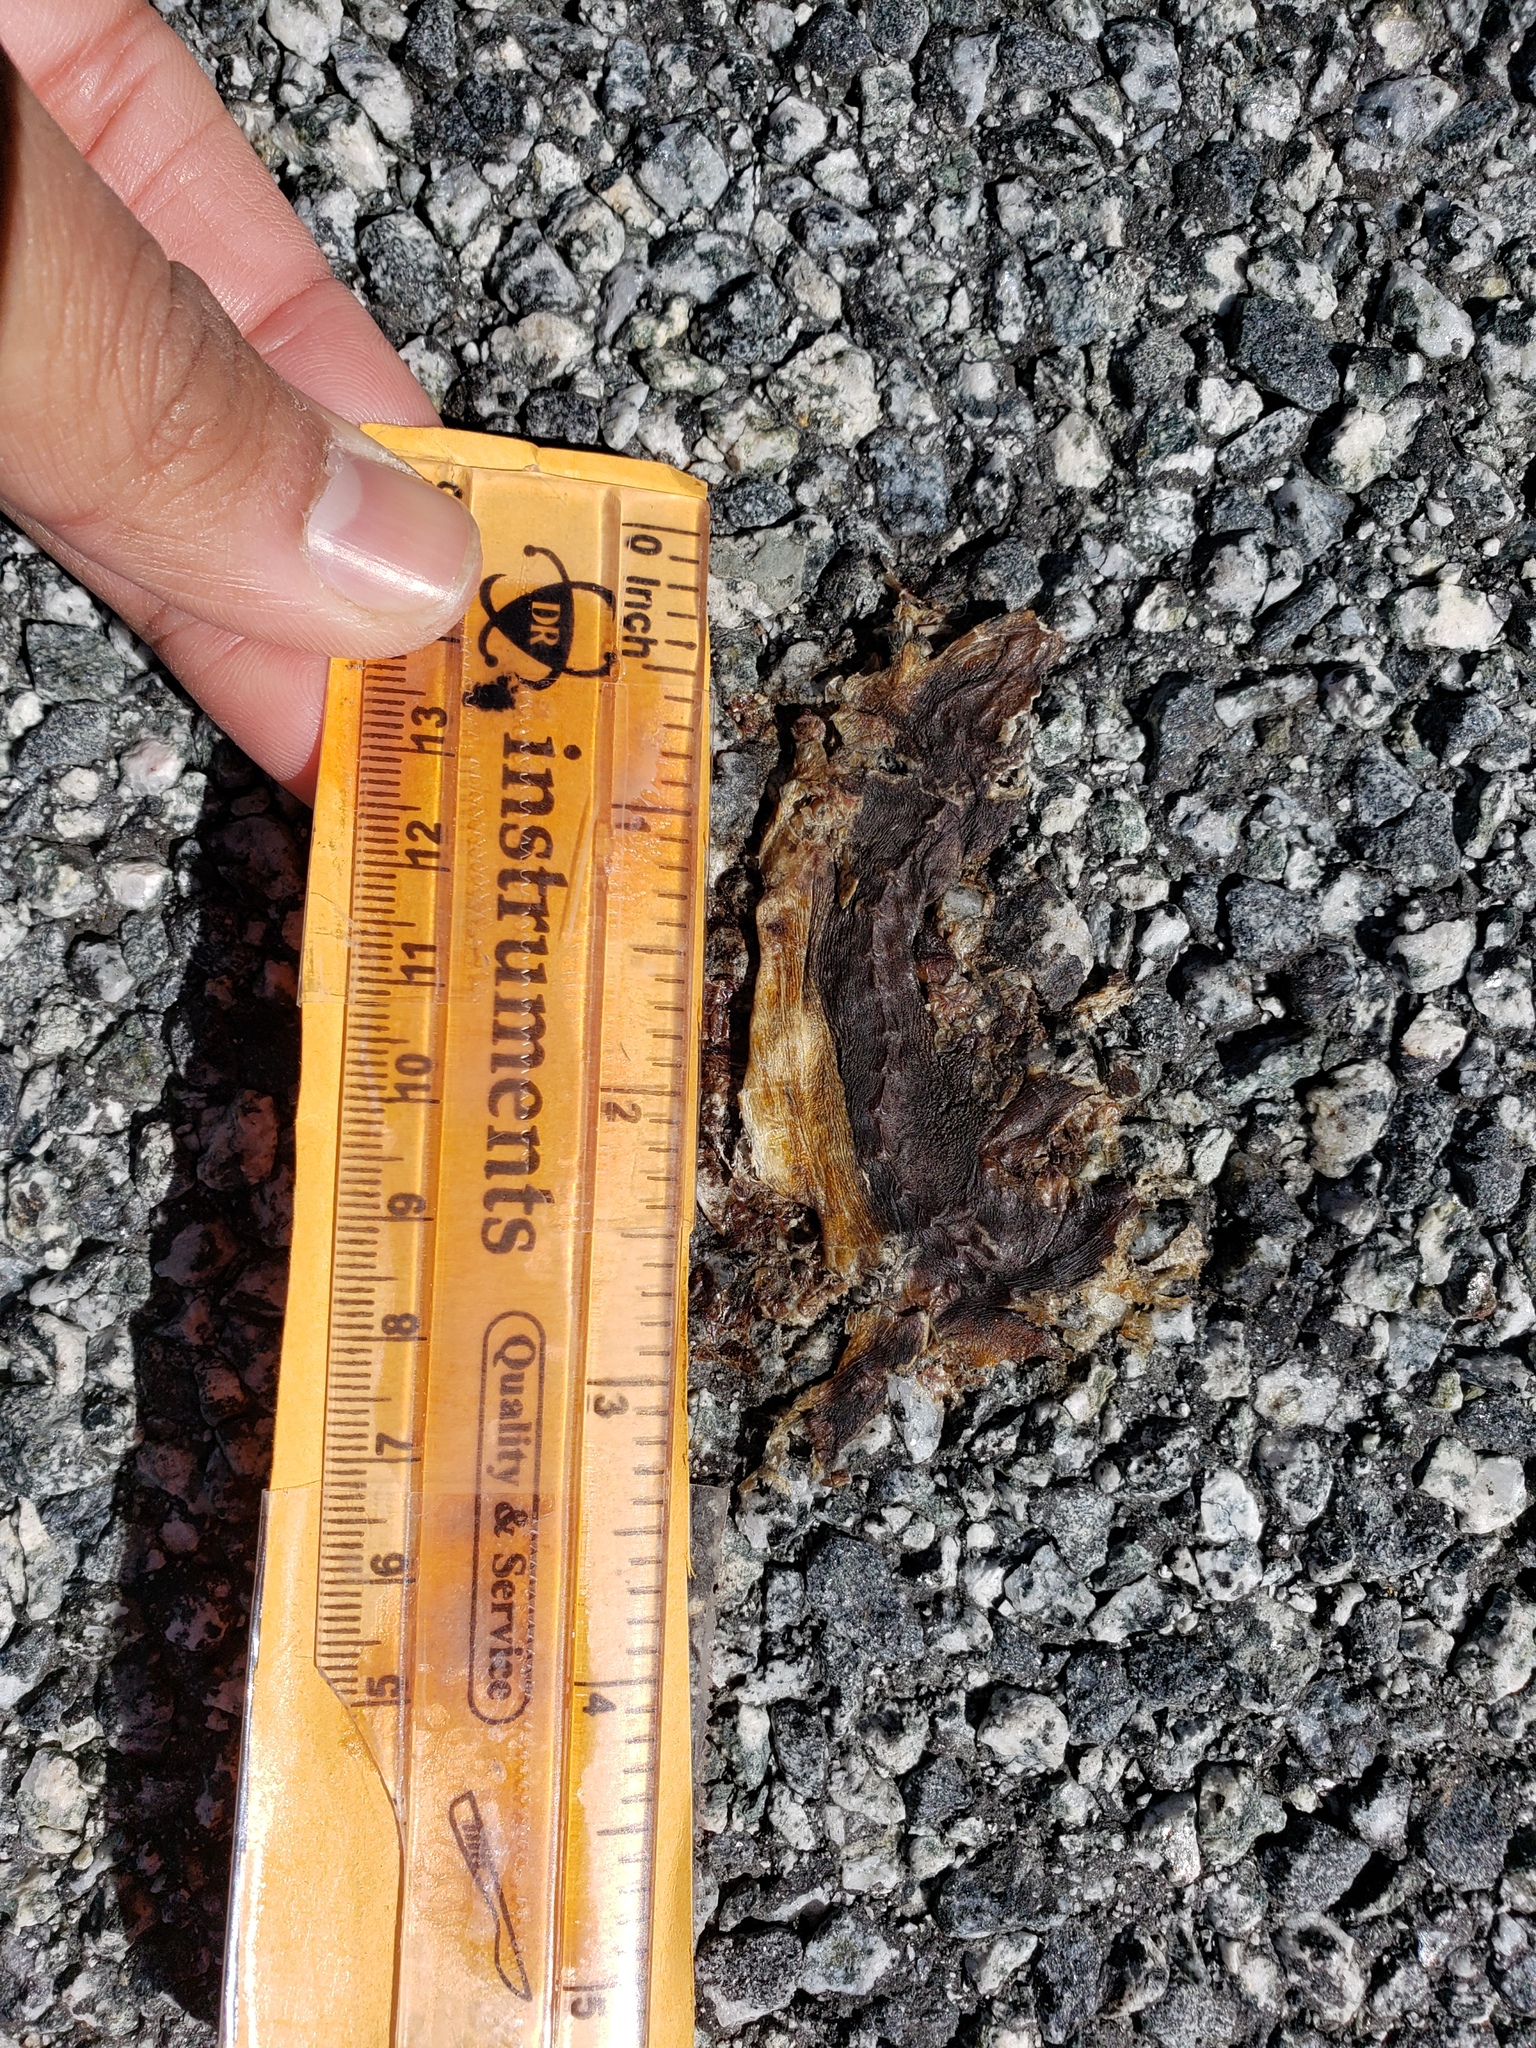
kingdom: Animalia
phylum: Chordata
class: Amphibia
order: Caudata
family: Salamandridae
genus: Taricha
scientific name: Taricha
